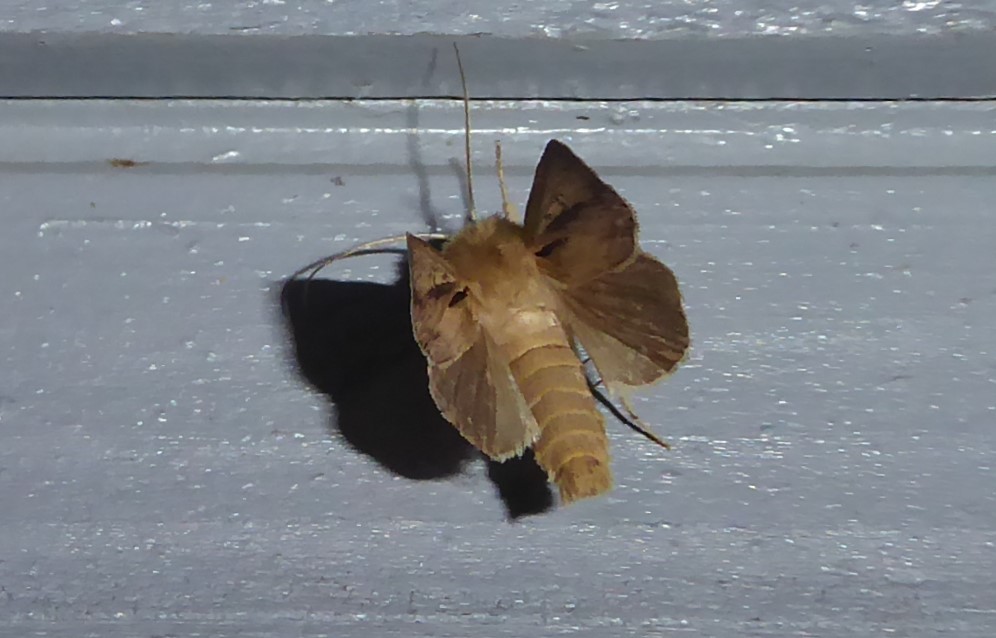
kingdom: Animalia
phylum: Arthropoda
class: Insecta
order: Lepidoptera
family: Noctuidae
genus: Ichneutica
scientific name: Ichneutica propria
